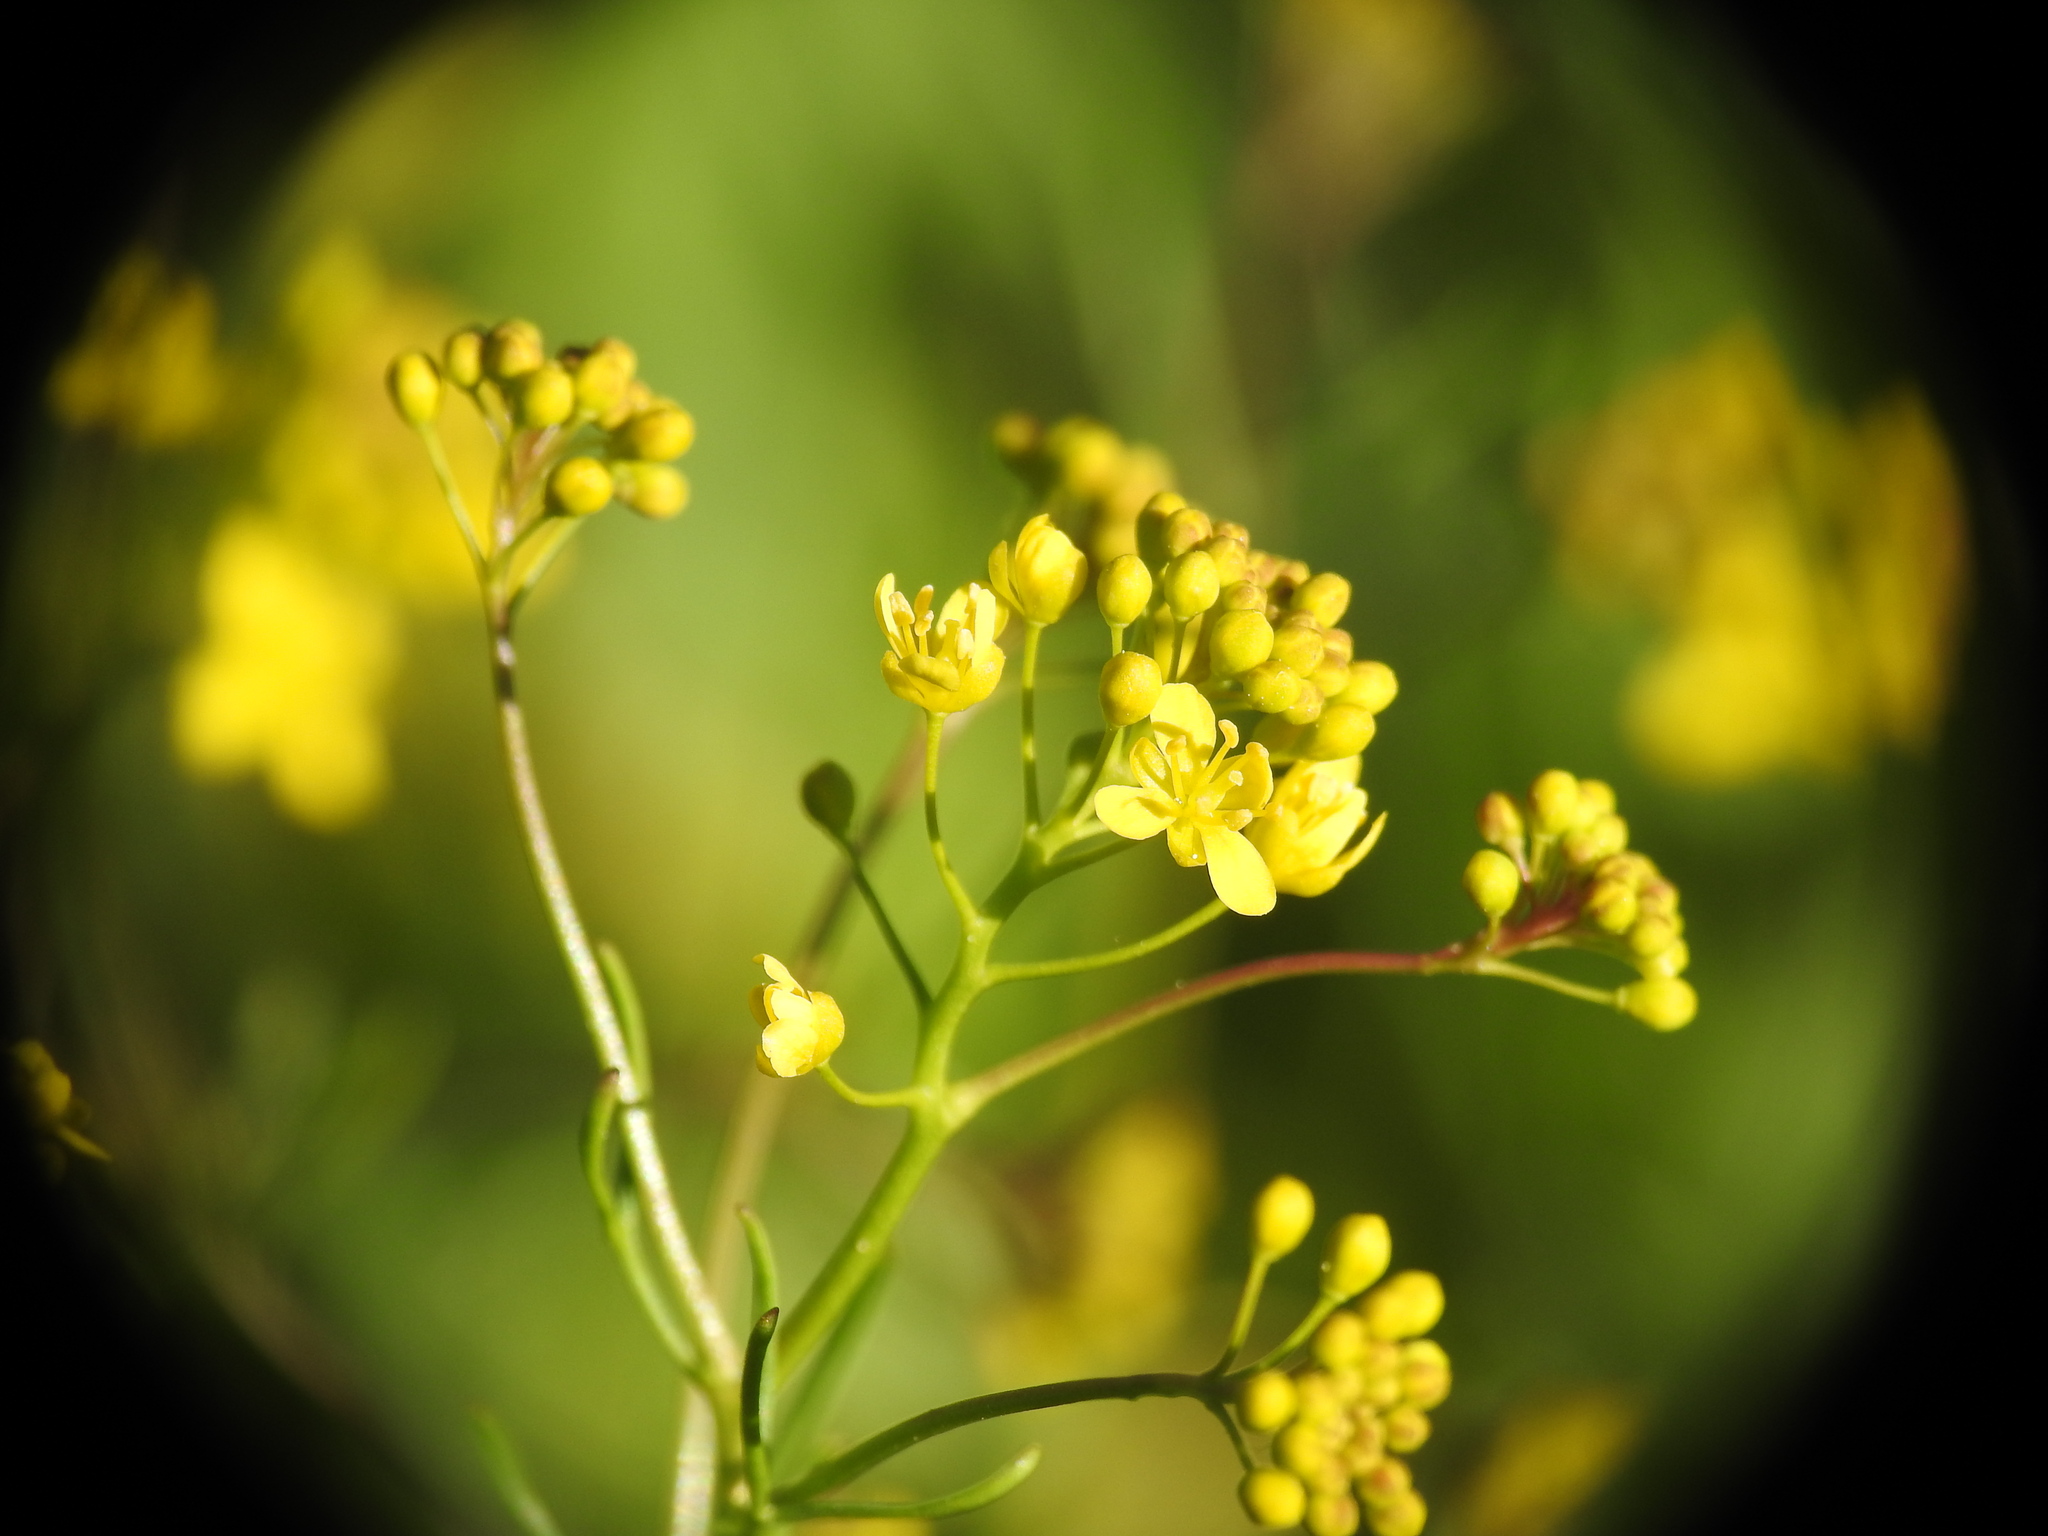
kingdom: Plantae
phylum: Tracheophyta
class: Magnoliopsida
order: Brassicales
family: Brassicaceae
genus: Rorippa
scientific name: Rorippa pyrenaica
